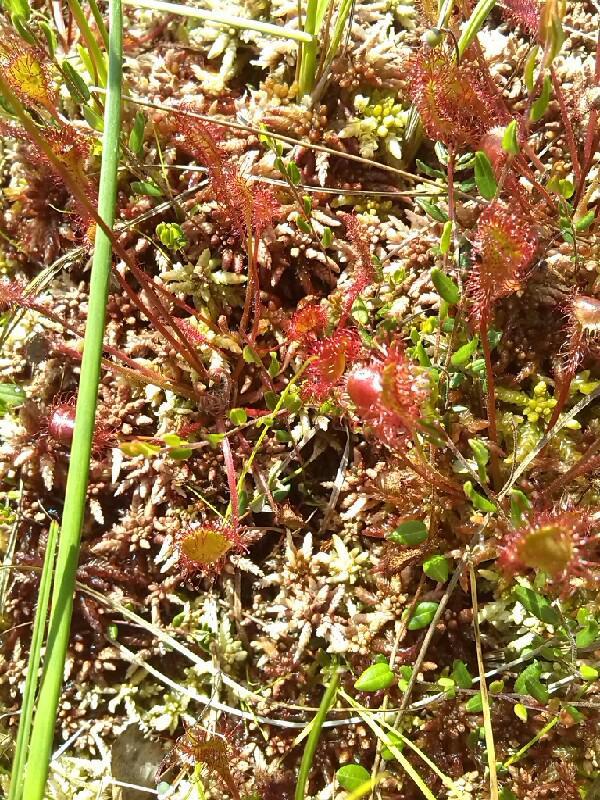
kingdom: Plantae
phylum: Tracheophyta
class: Magnoliopsida
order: Caryophyllales
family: Droseraceae
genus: Drosera
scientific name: Drosera obovata
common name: Ivan's paddle
